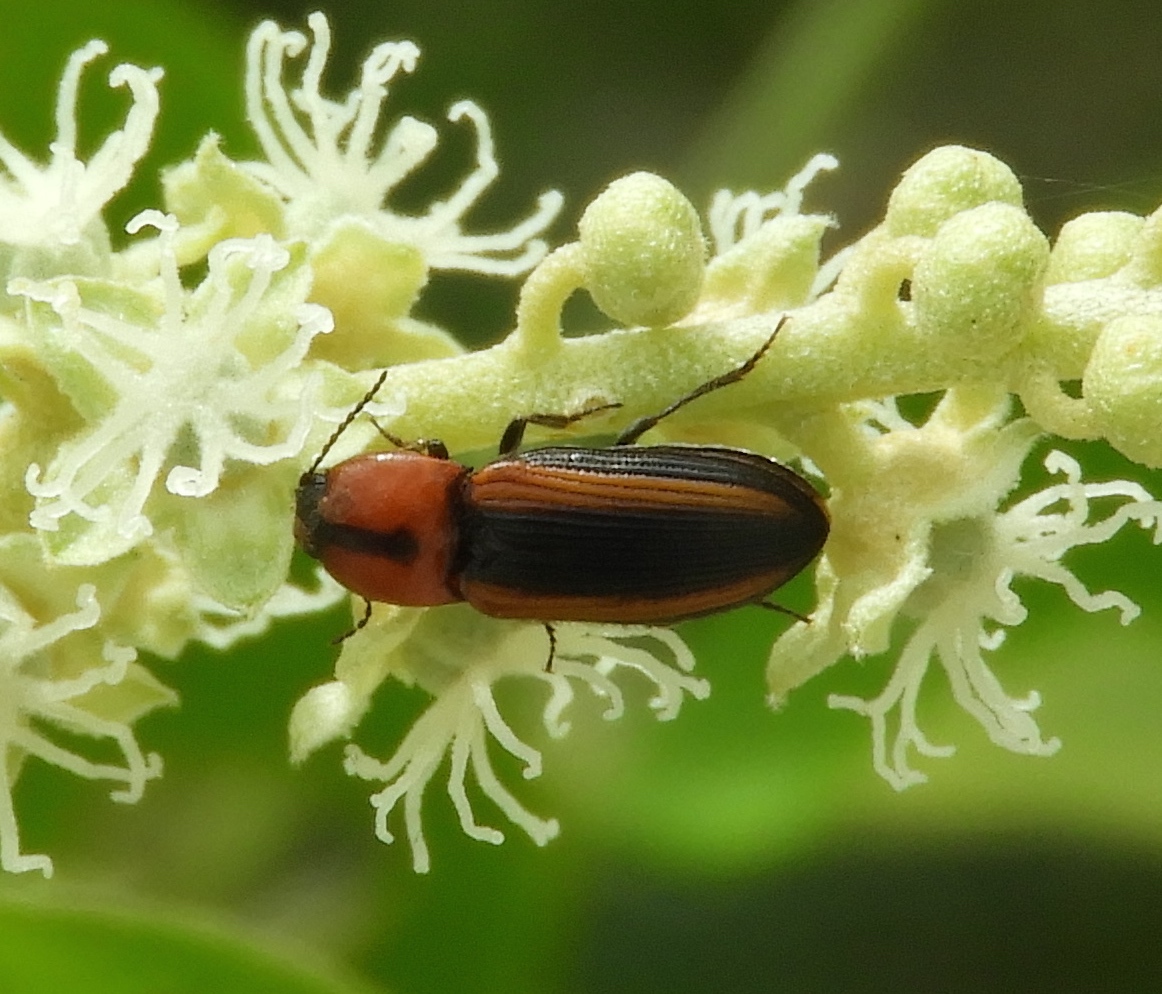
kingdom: Animalia
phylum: Arthropoda
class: Insecta
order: Coleoptera
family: Elateridae
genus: Cardiophorus
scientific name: Cardiophorus aptopoides
